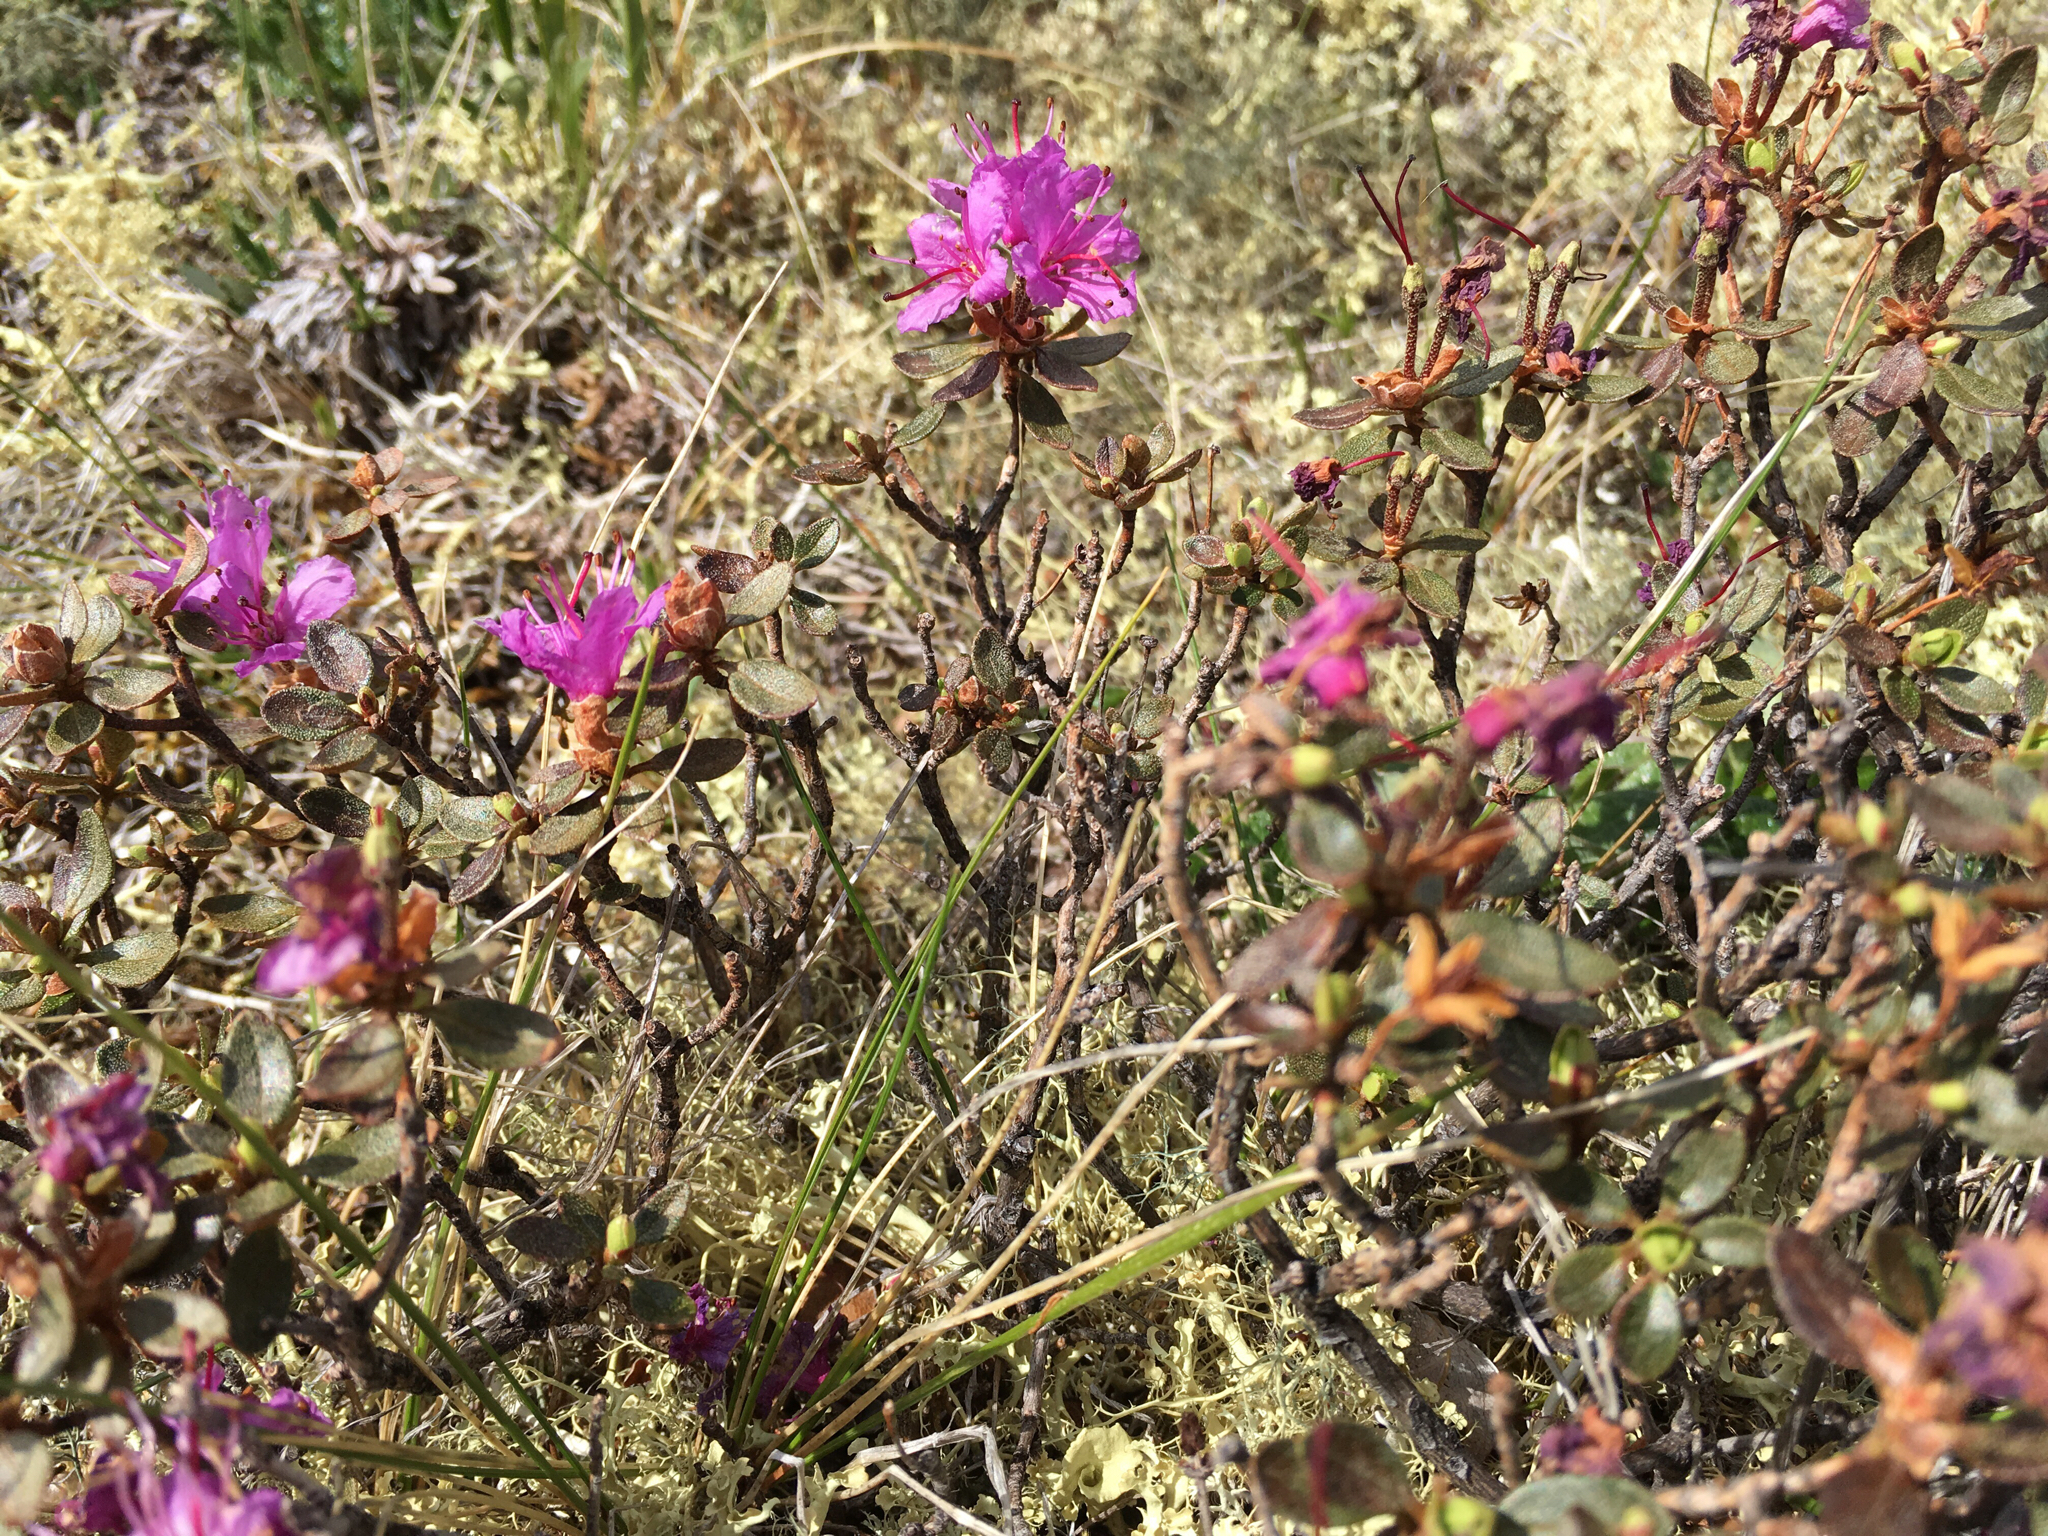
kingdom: Plantae
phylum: Tracheophyta
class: Magnoliopsida
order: Ericales
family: Ericaceae
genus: Rhododendron
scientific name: Rhododendron lapponicum
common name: Lapland rhododendron
